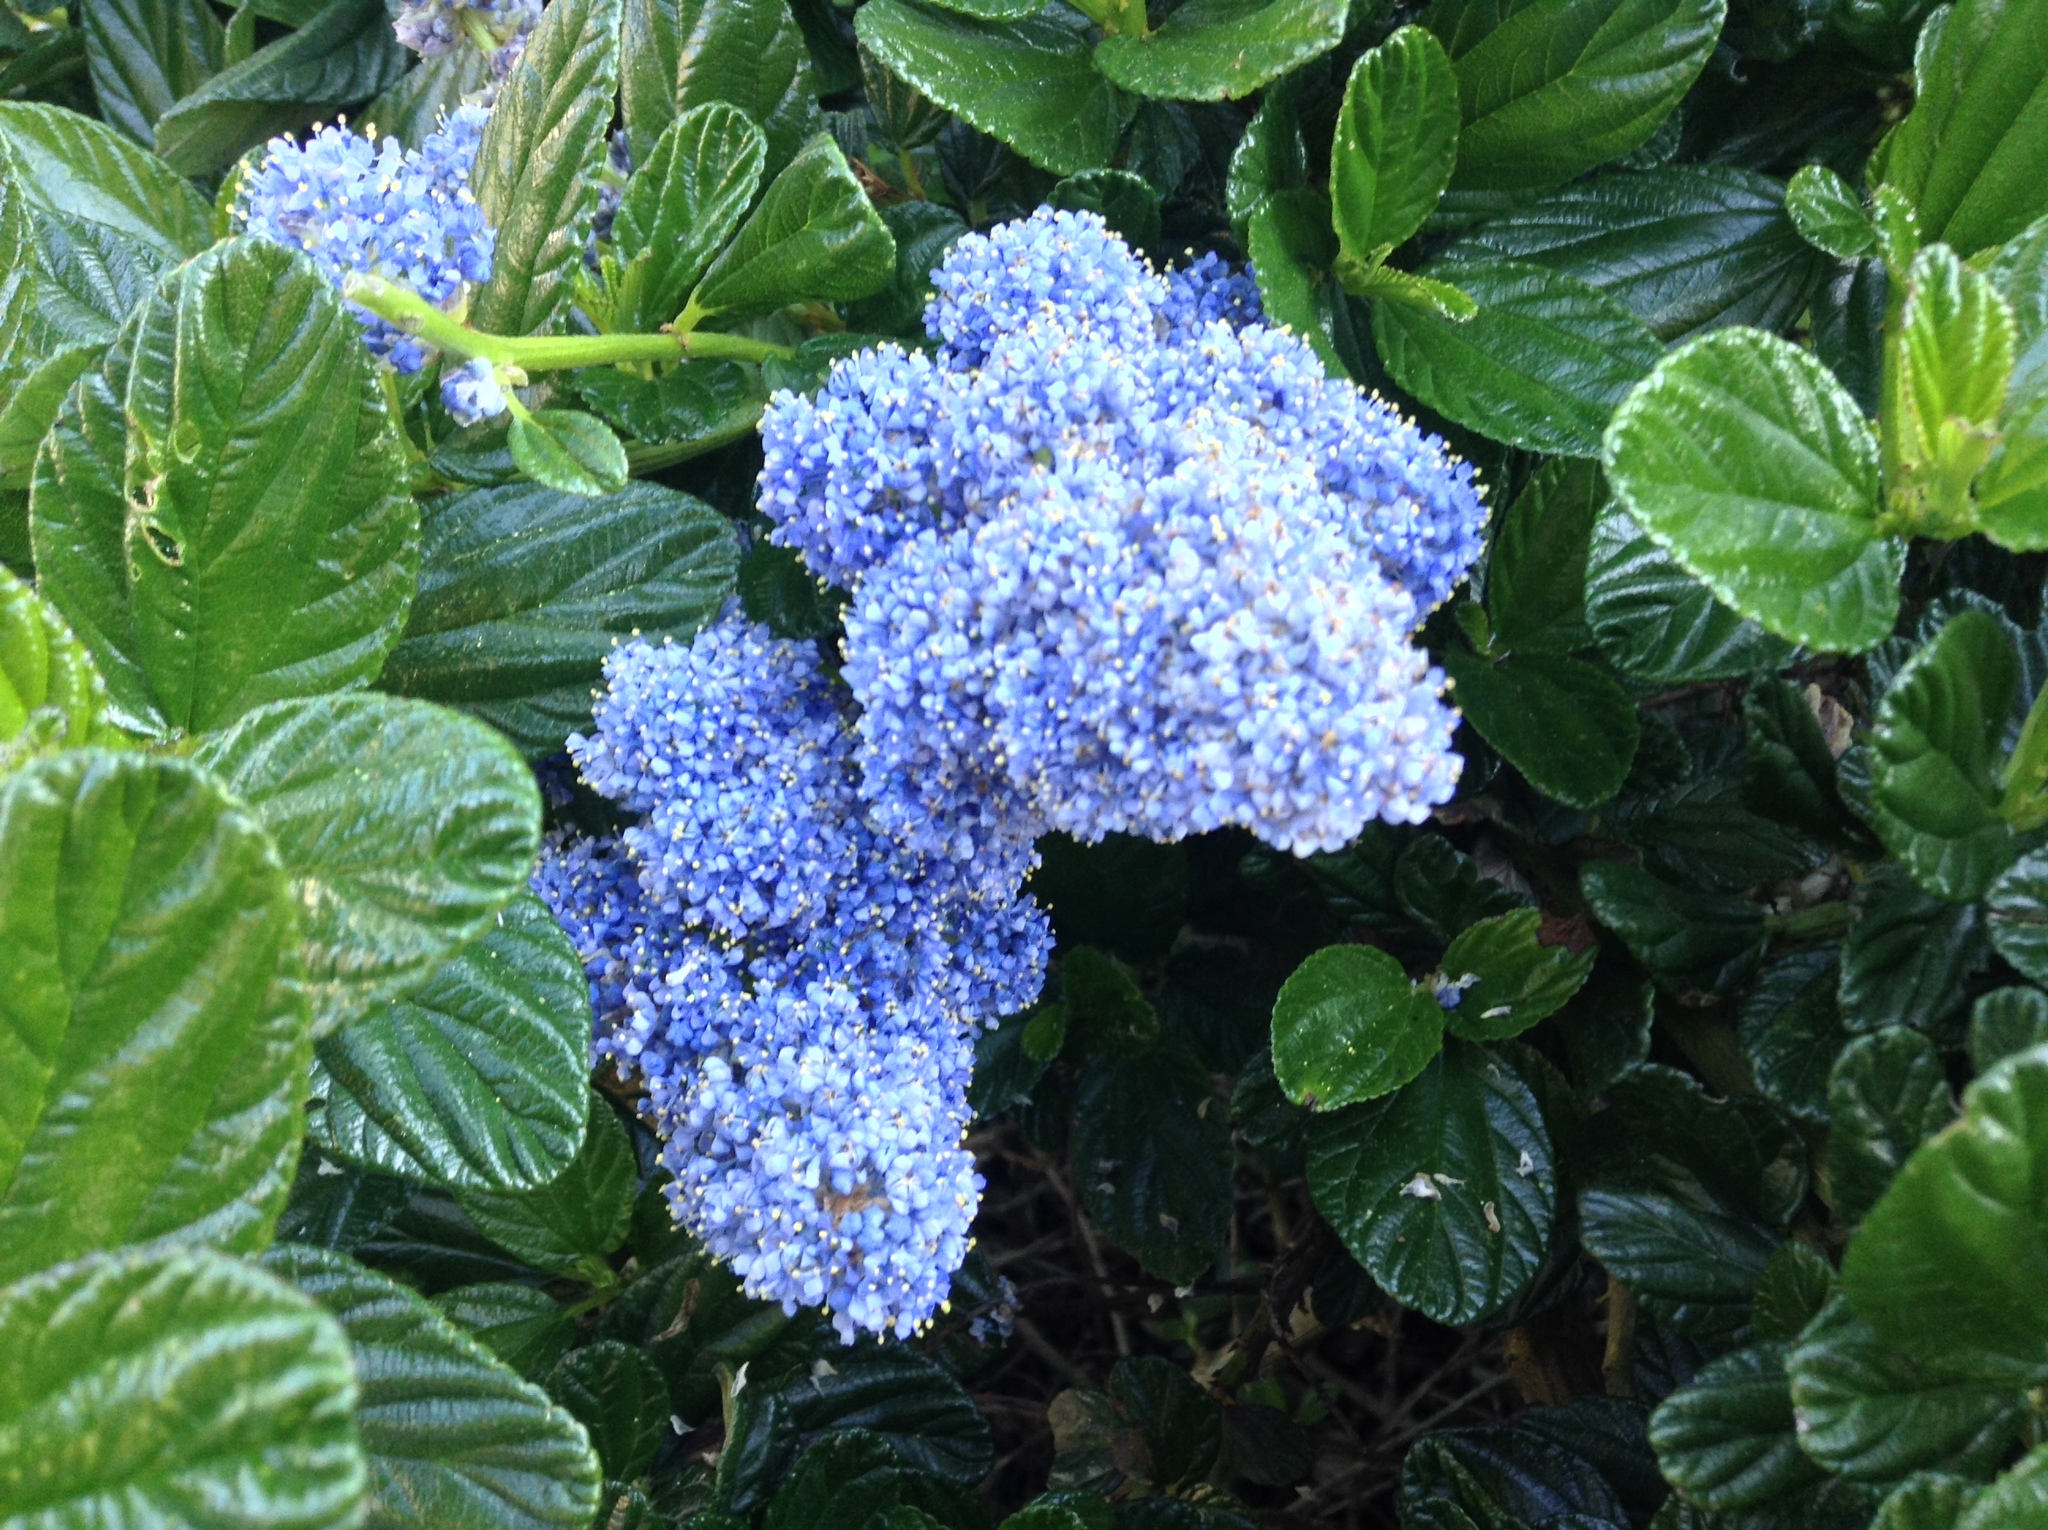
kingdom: Plantae
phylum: Tracheophyta
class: Magnoliopsida
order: Rosales
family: Rhamnaceae
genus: Ceanothus
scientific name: Ceanothus thyrsiflorus
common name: California-lilac
